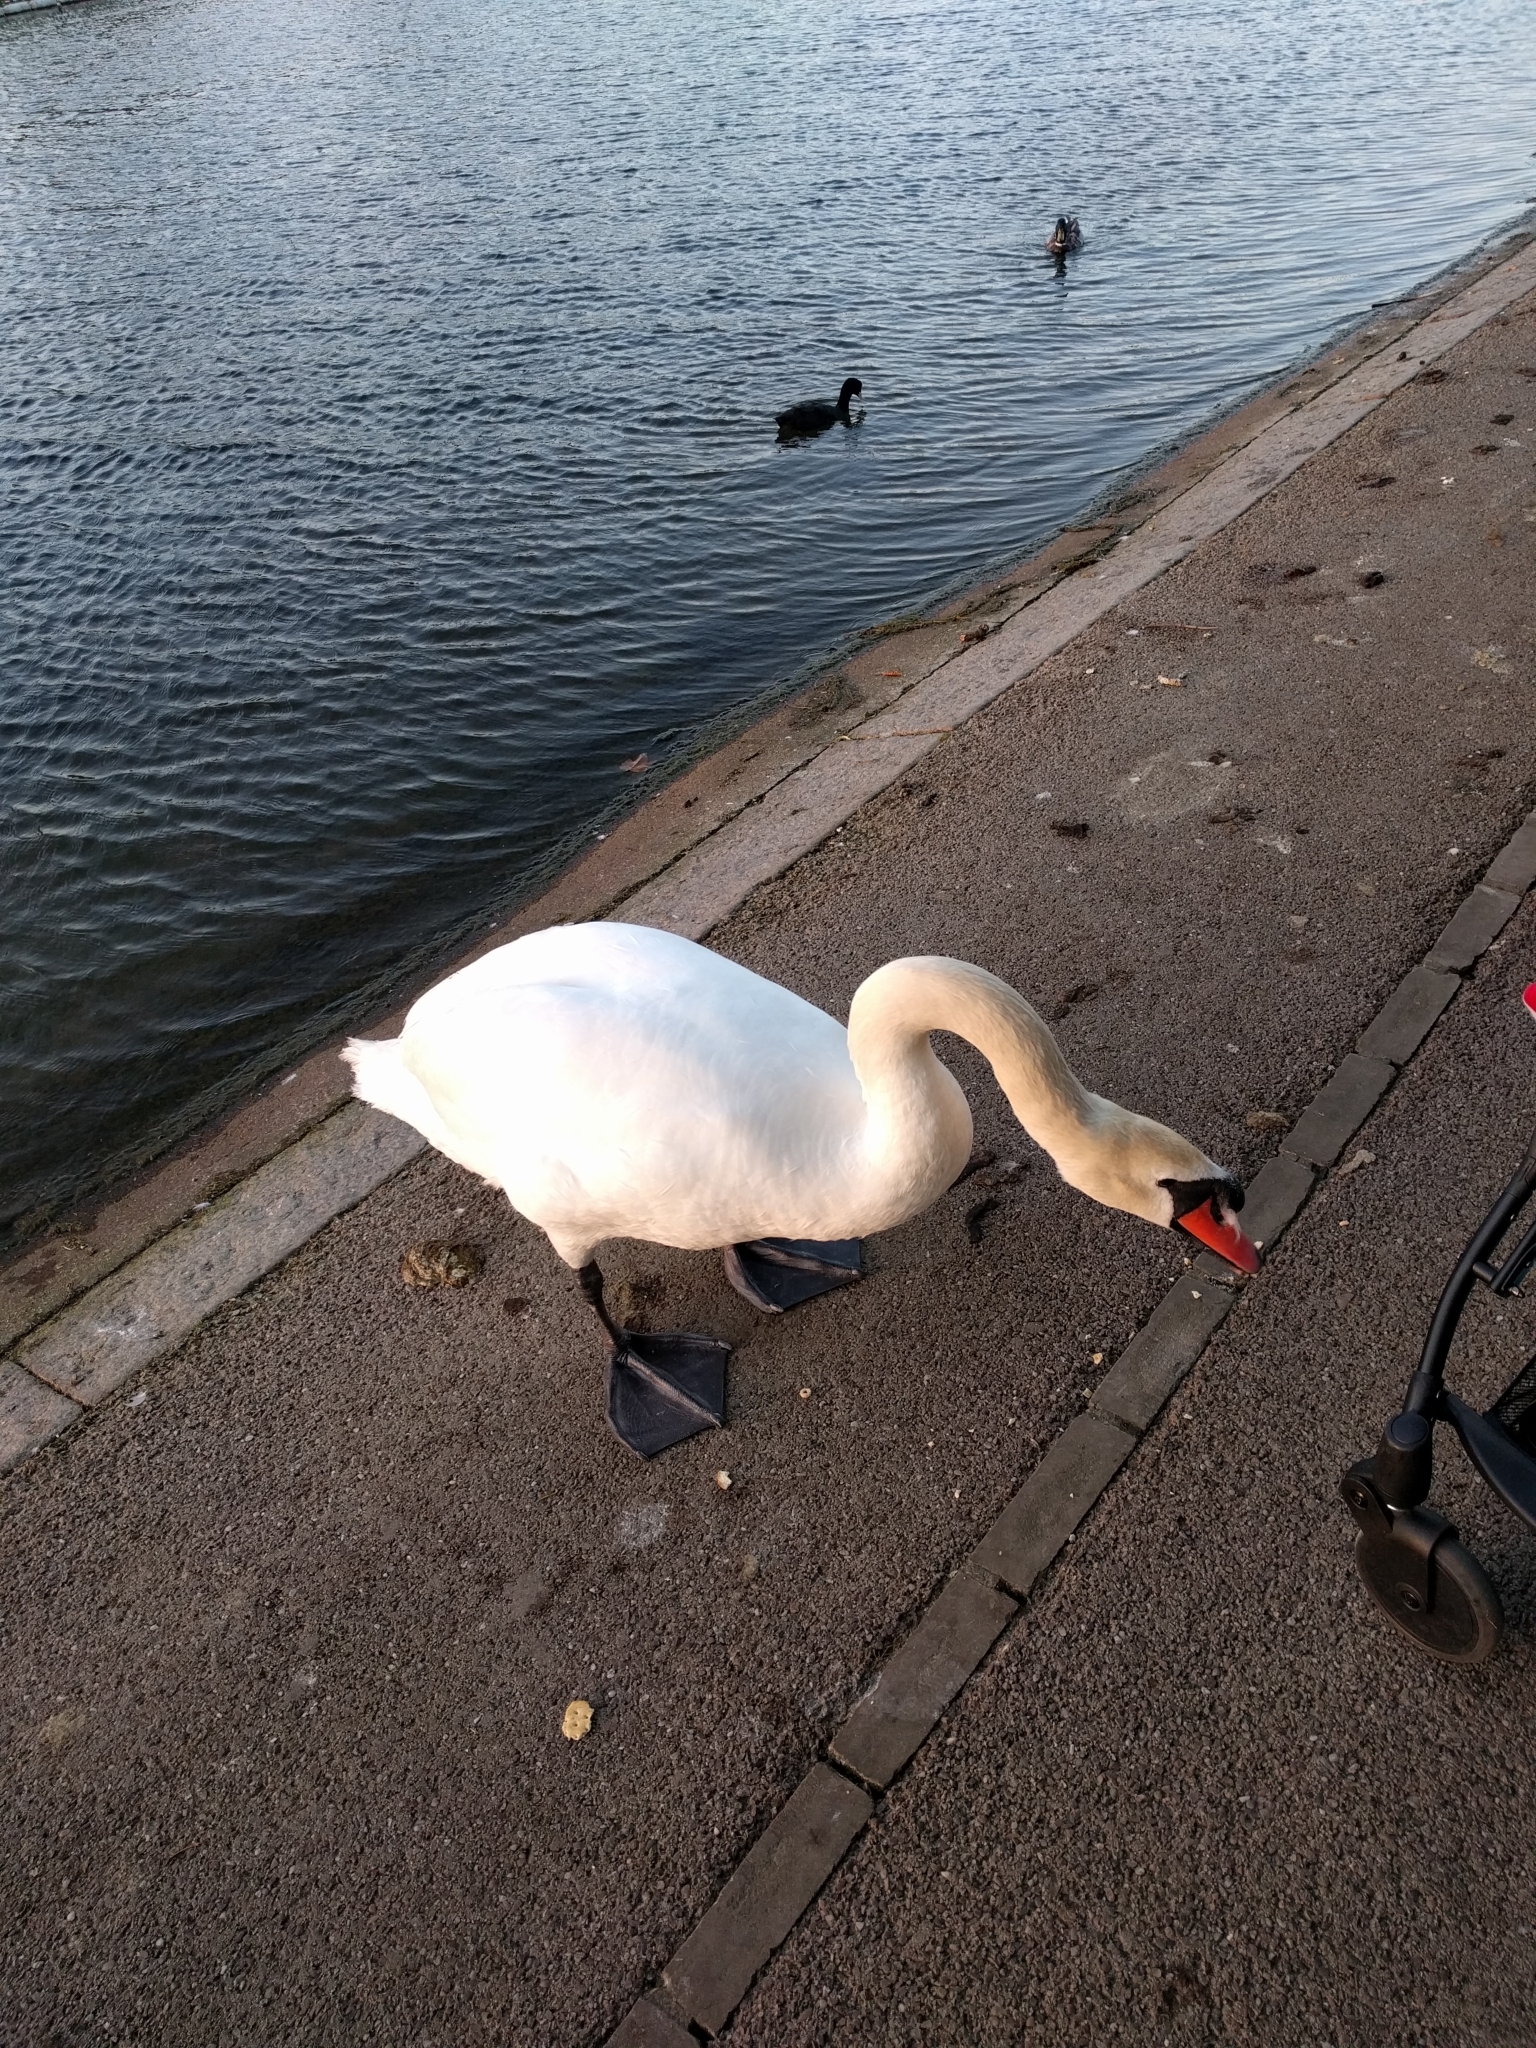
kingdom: Animalia
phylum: Chordata
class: Aves
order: Anseriformes
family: Anatidae
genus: Cygnus
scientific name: Cygnus olor
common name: Mute swan
